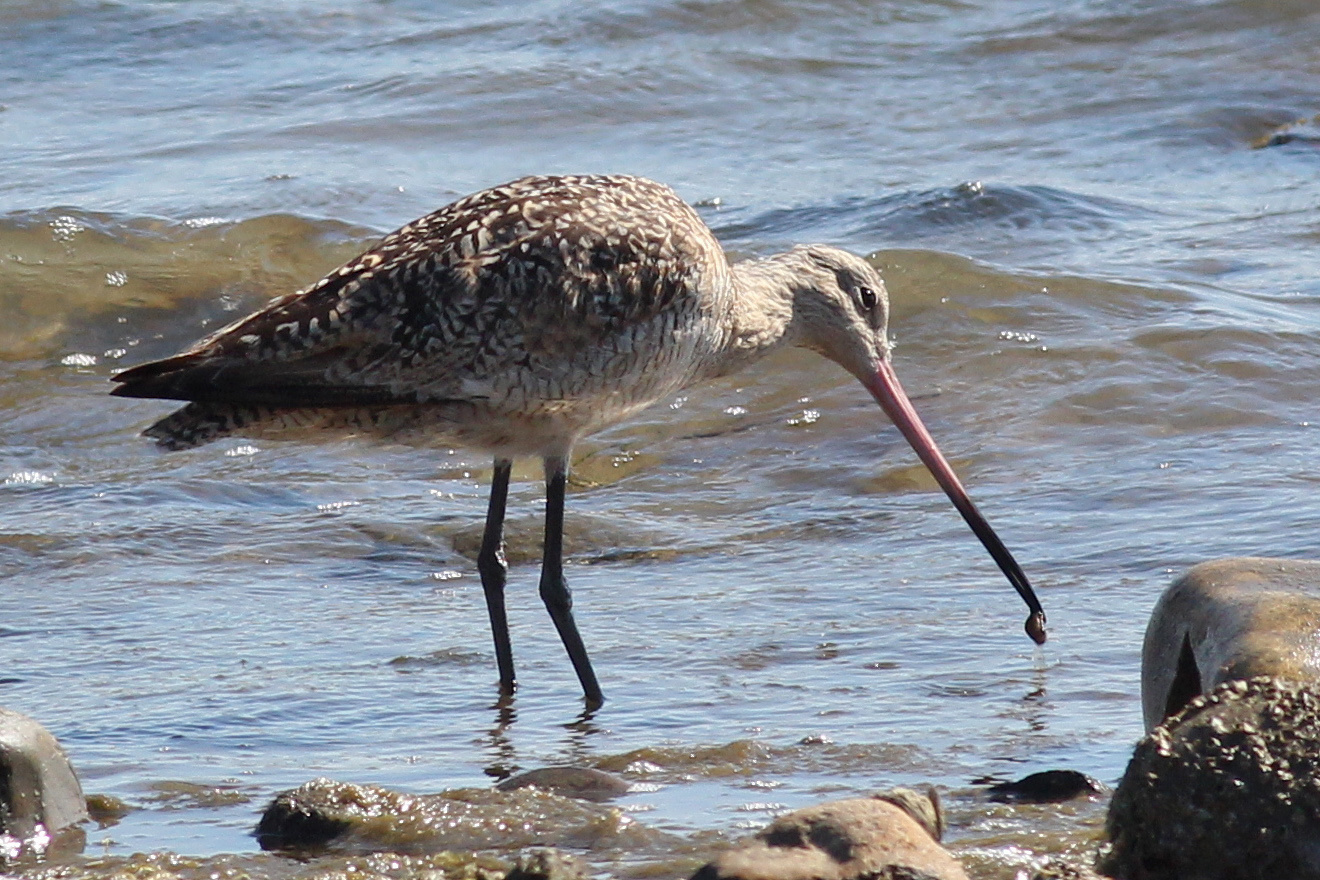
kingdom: Animalia
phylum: Chordata
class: Aves
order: Charadriiformes
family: Scolopacidae
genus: Limosa
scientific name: Limosa fedoa
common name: Marbled godwit
